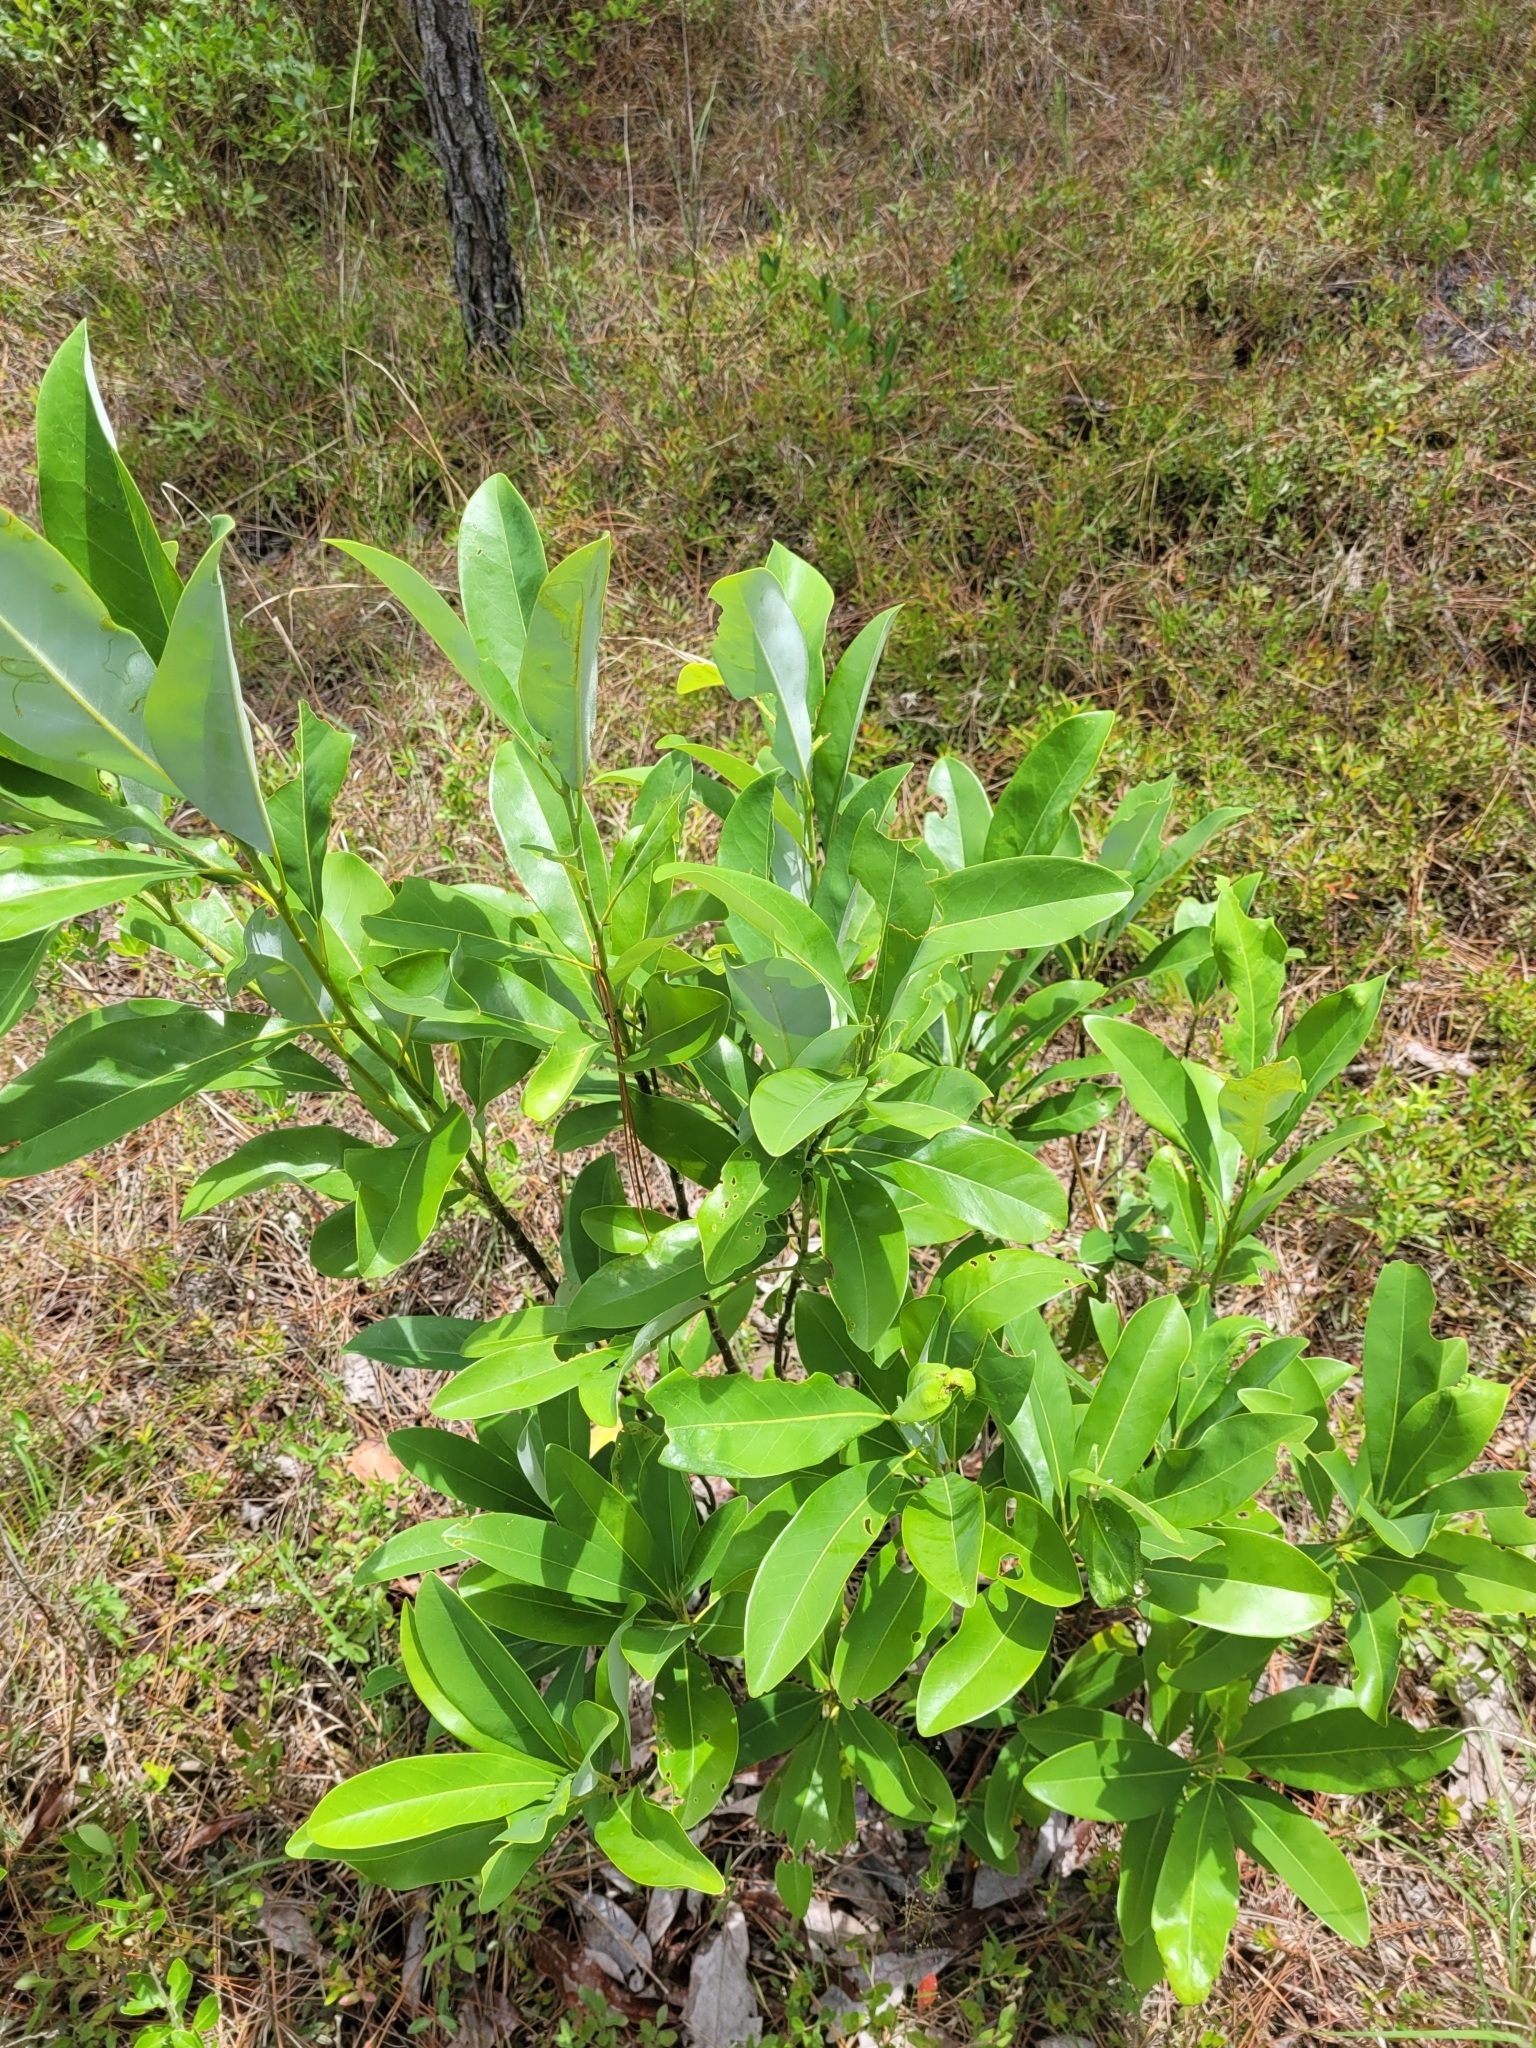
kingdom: Plantae
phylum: Tracheophyta
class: Magnoliopsida
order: Magnoliales
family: Magnoliaceae
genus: Magnolia
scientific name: Magnolia virginiana
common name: Swamp bay
